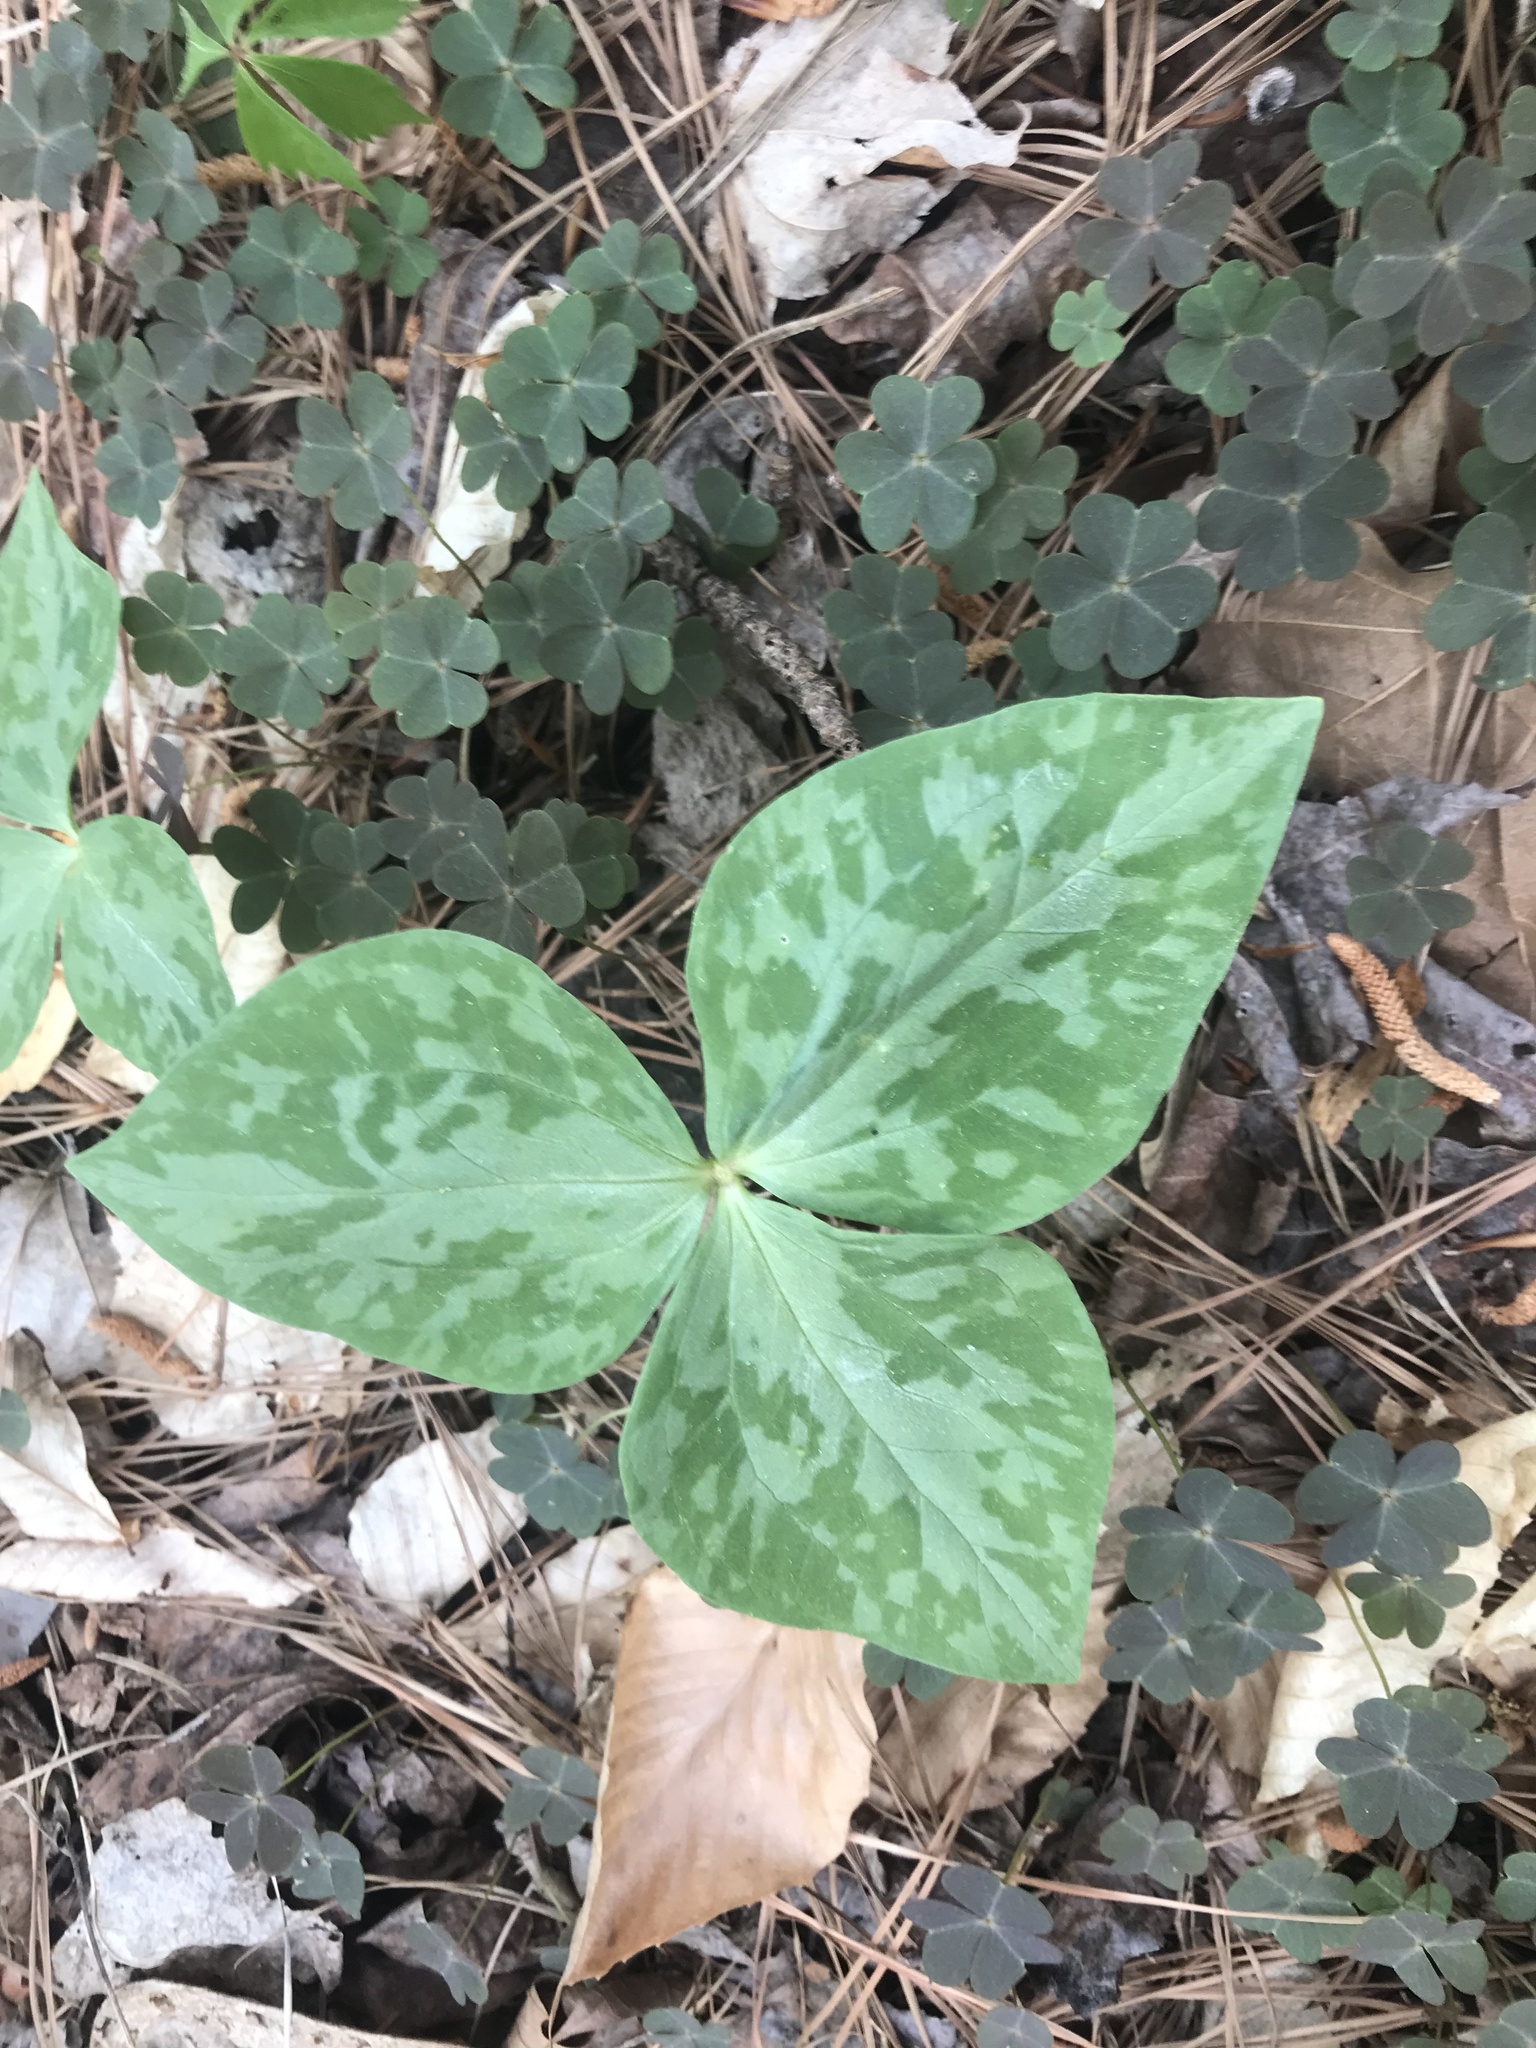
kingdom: Plantae
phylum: Tracheophyta
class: Liliopsida
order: Liliales
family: Melanthiaceae
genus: Trillium
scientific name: Trillium cuneatum
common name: Cuneate trillium
